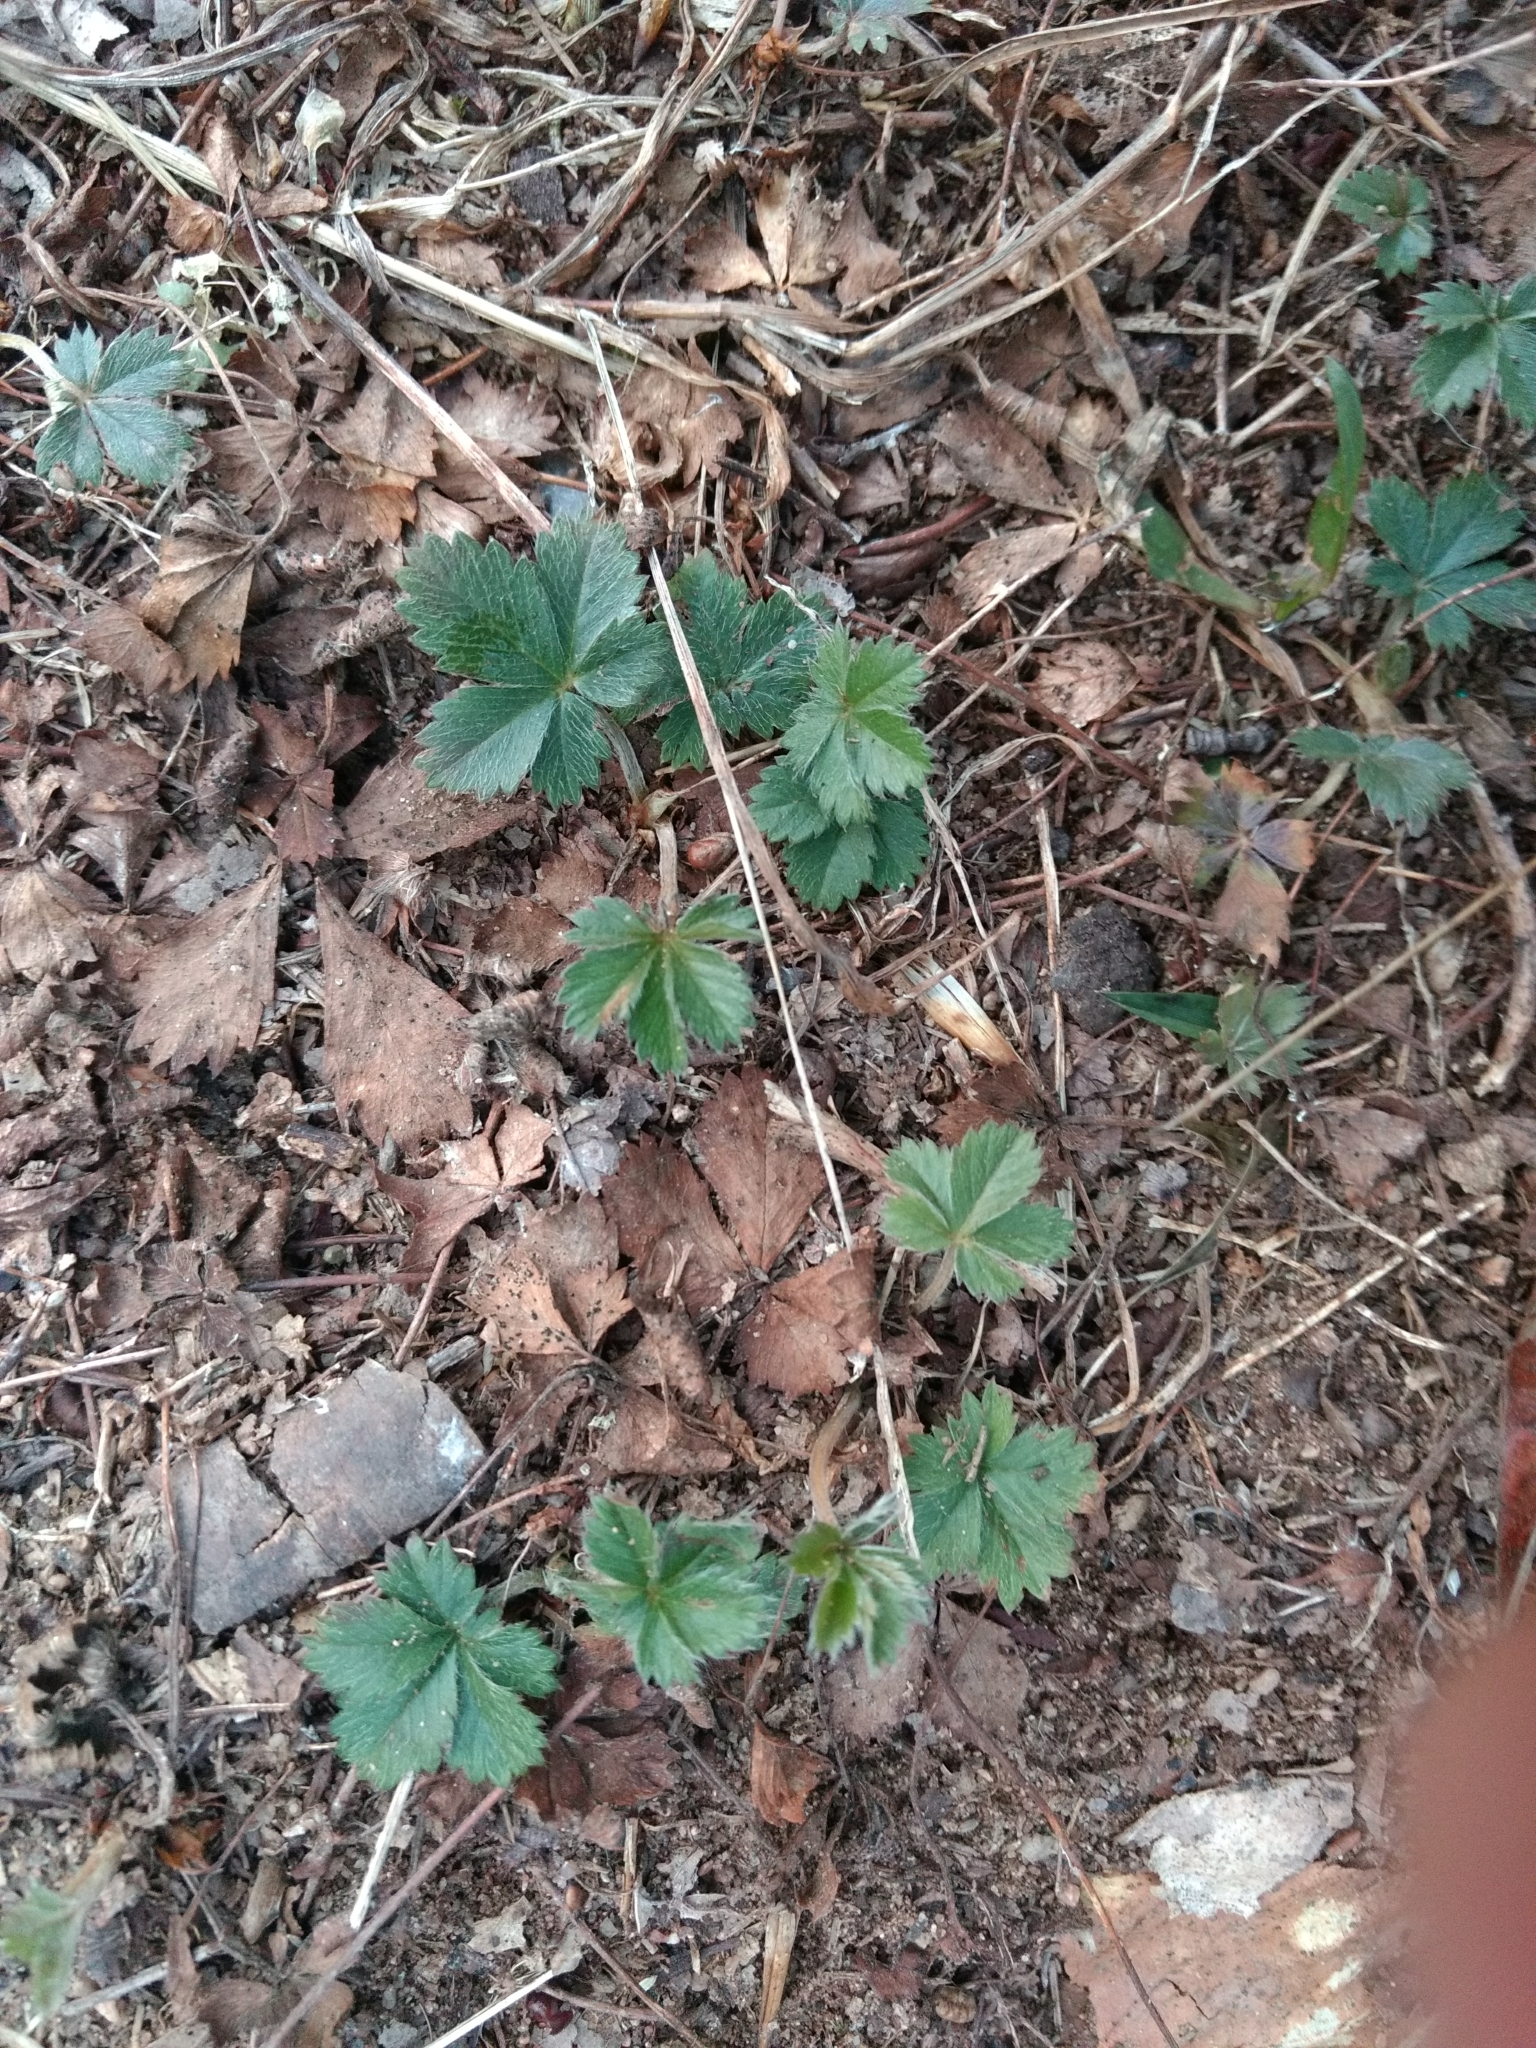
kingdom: Plantae
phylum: Tracheophyta
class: Magnoliopsida
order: Rosales
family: Rosaceae
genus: Potentilla
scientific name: Potentilla canadensis
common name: Canada cinquefoil
